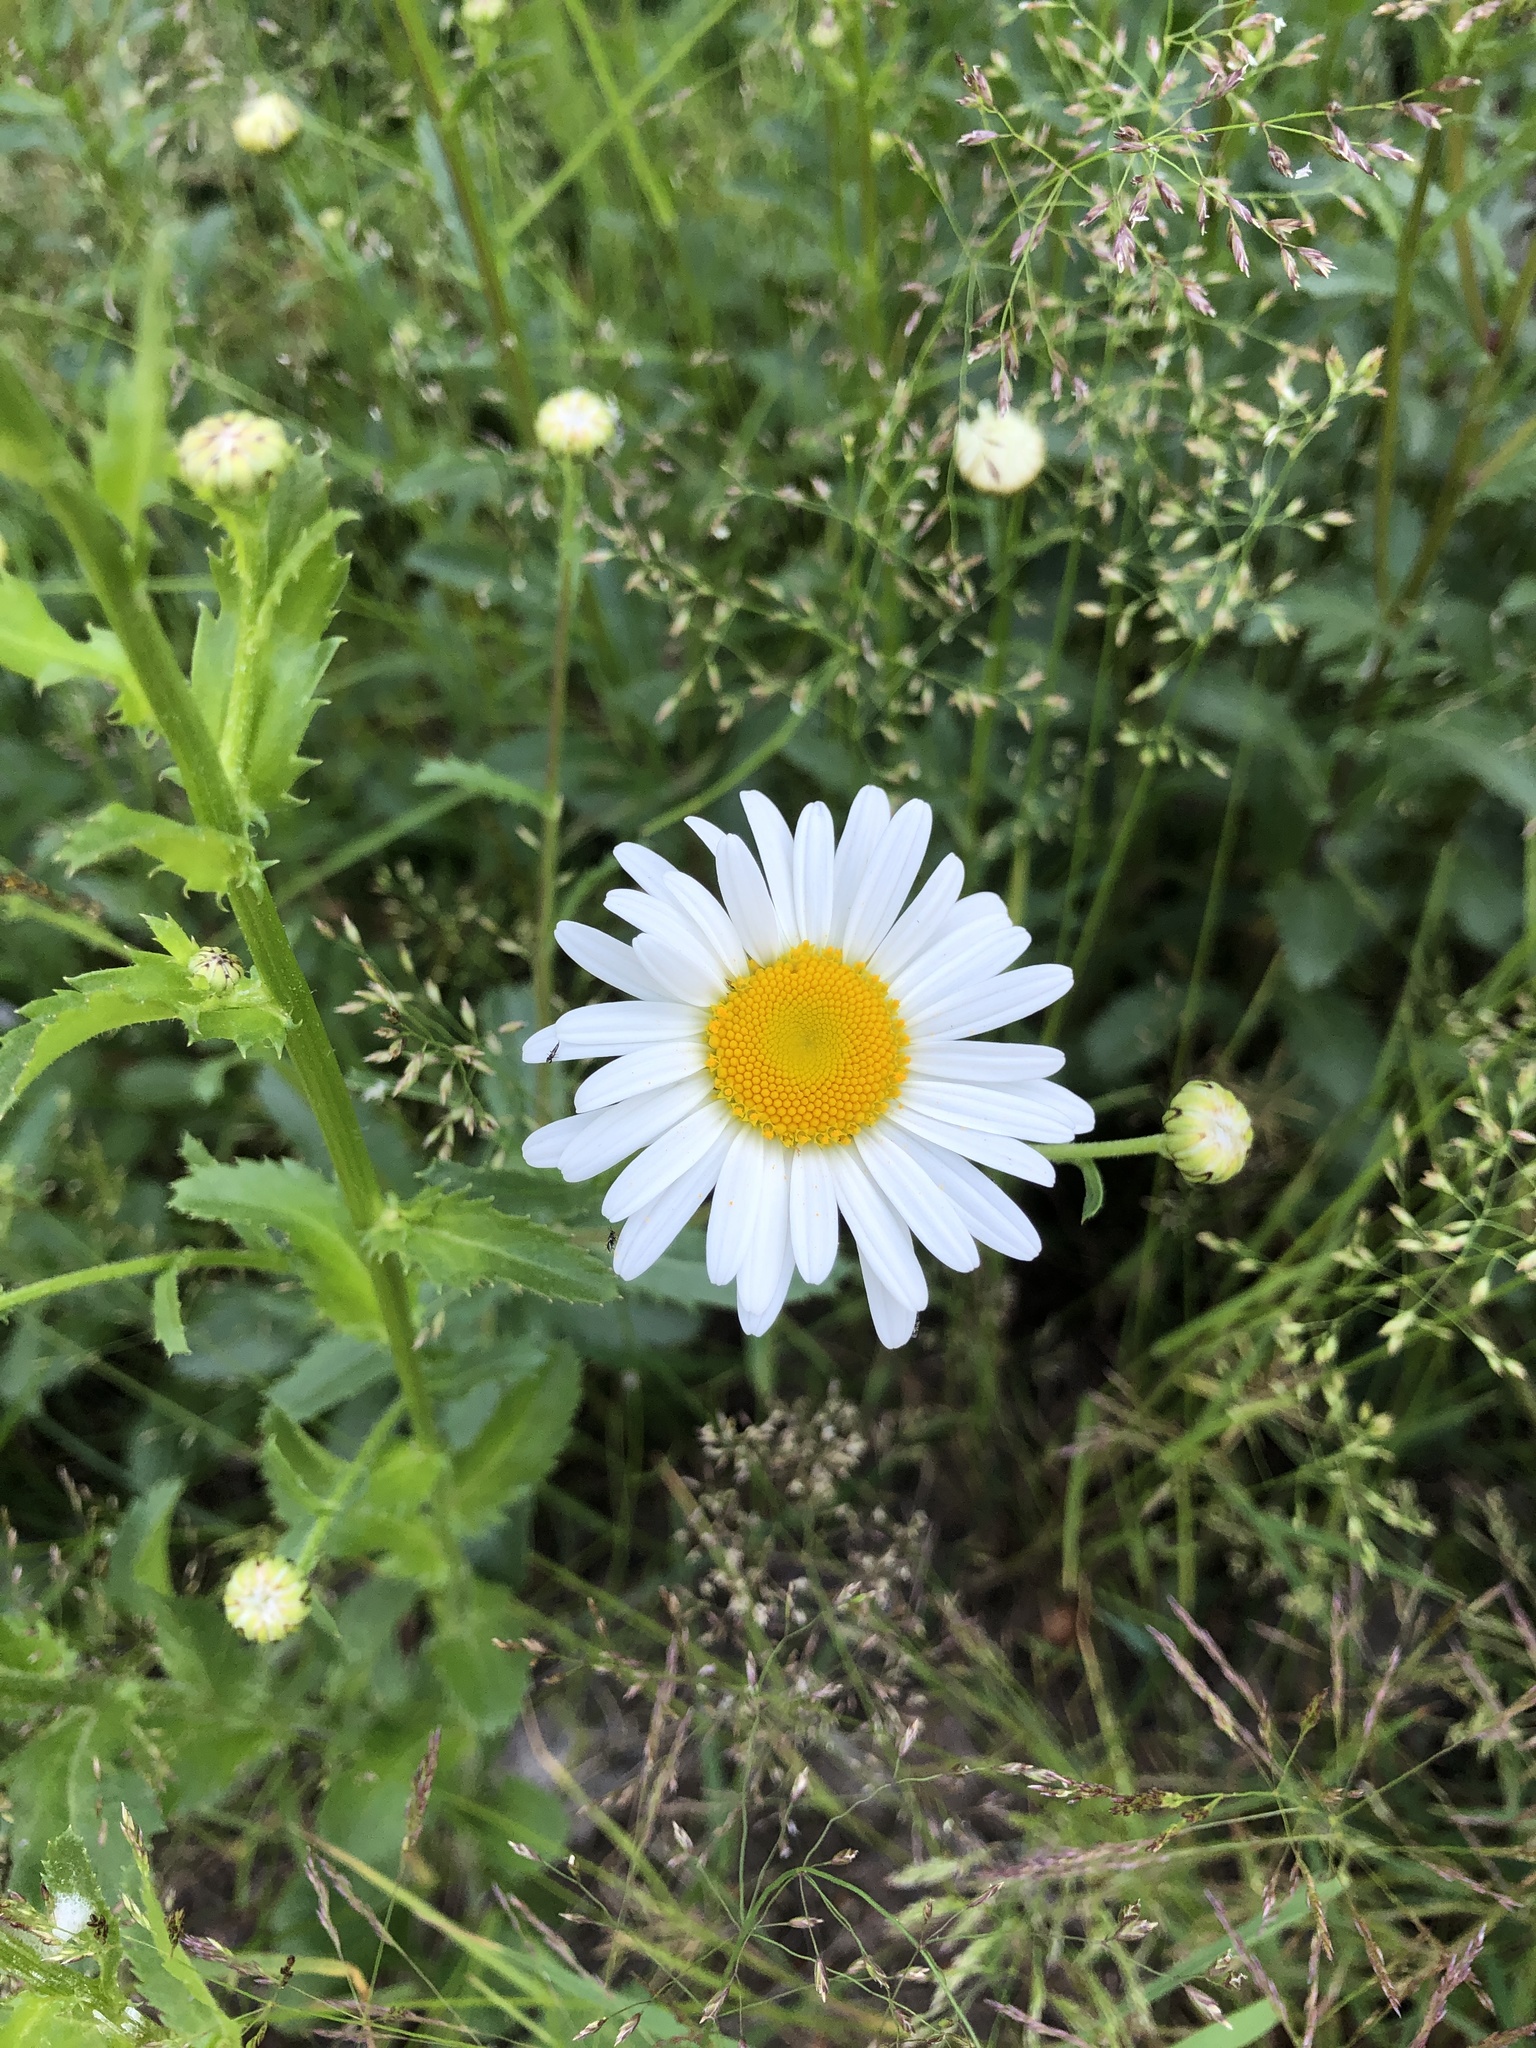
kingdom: Plantae
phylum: Tracheophyta
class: Magnoliopsida
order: Asterales
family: Asteraceae
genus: Leucanthemum
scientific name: Leucanthemum vulgare
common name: Oxeye daisy
